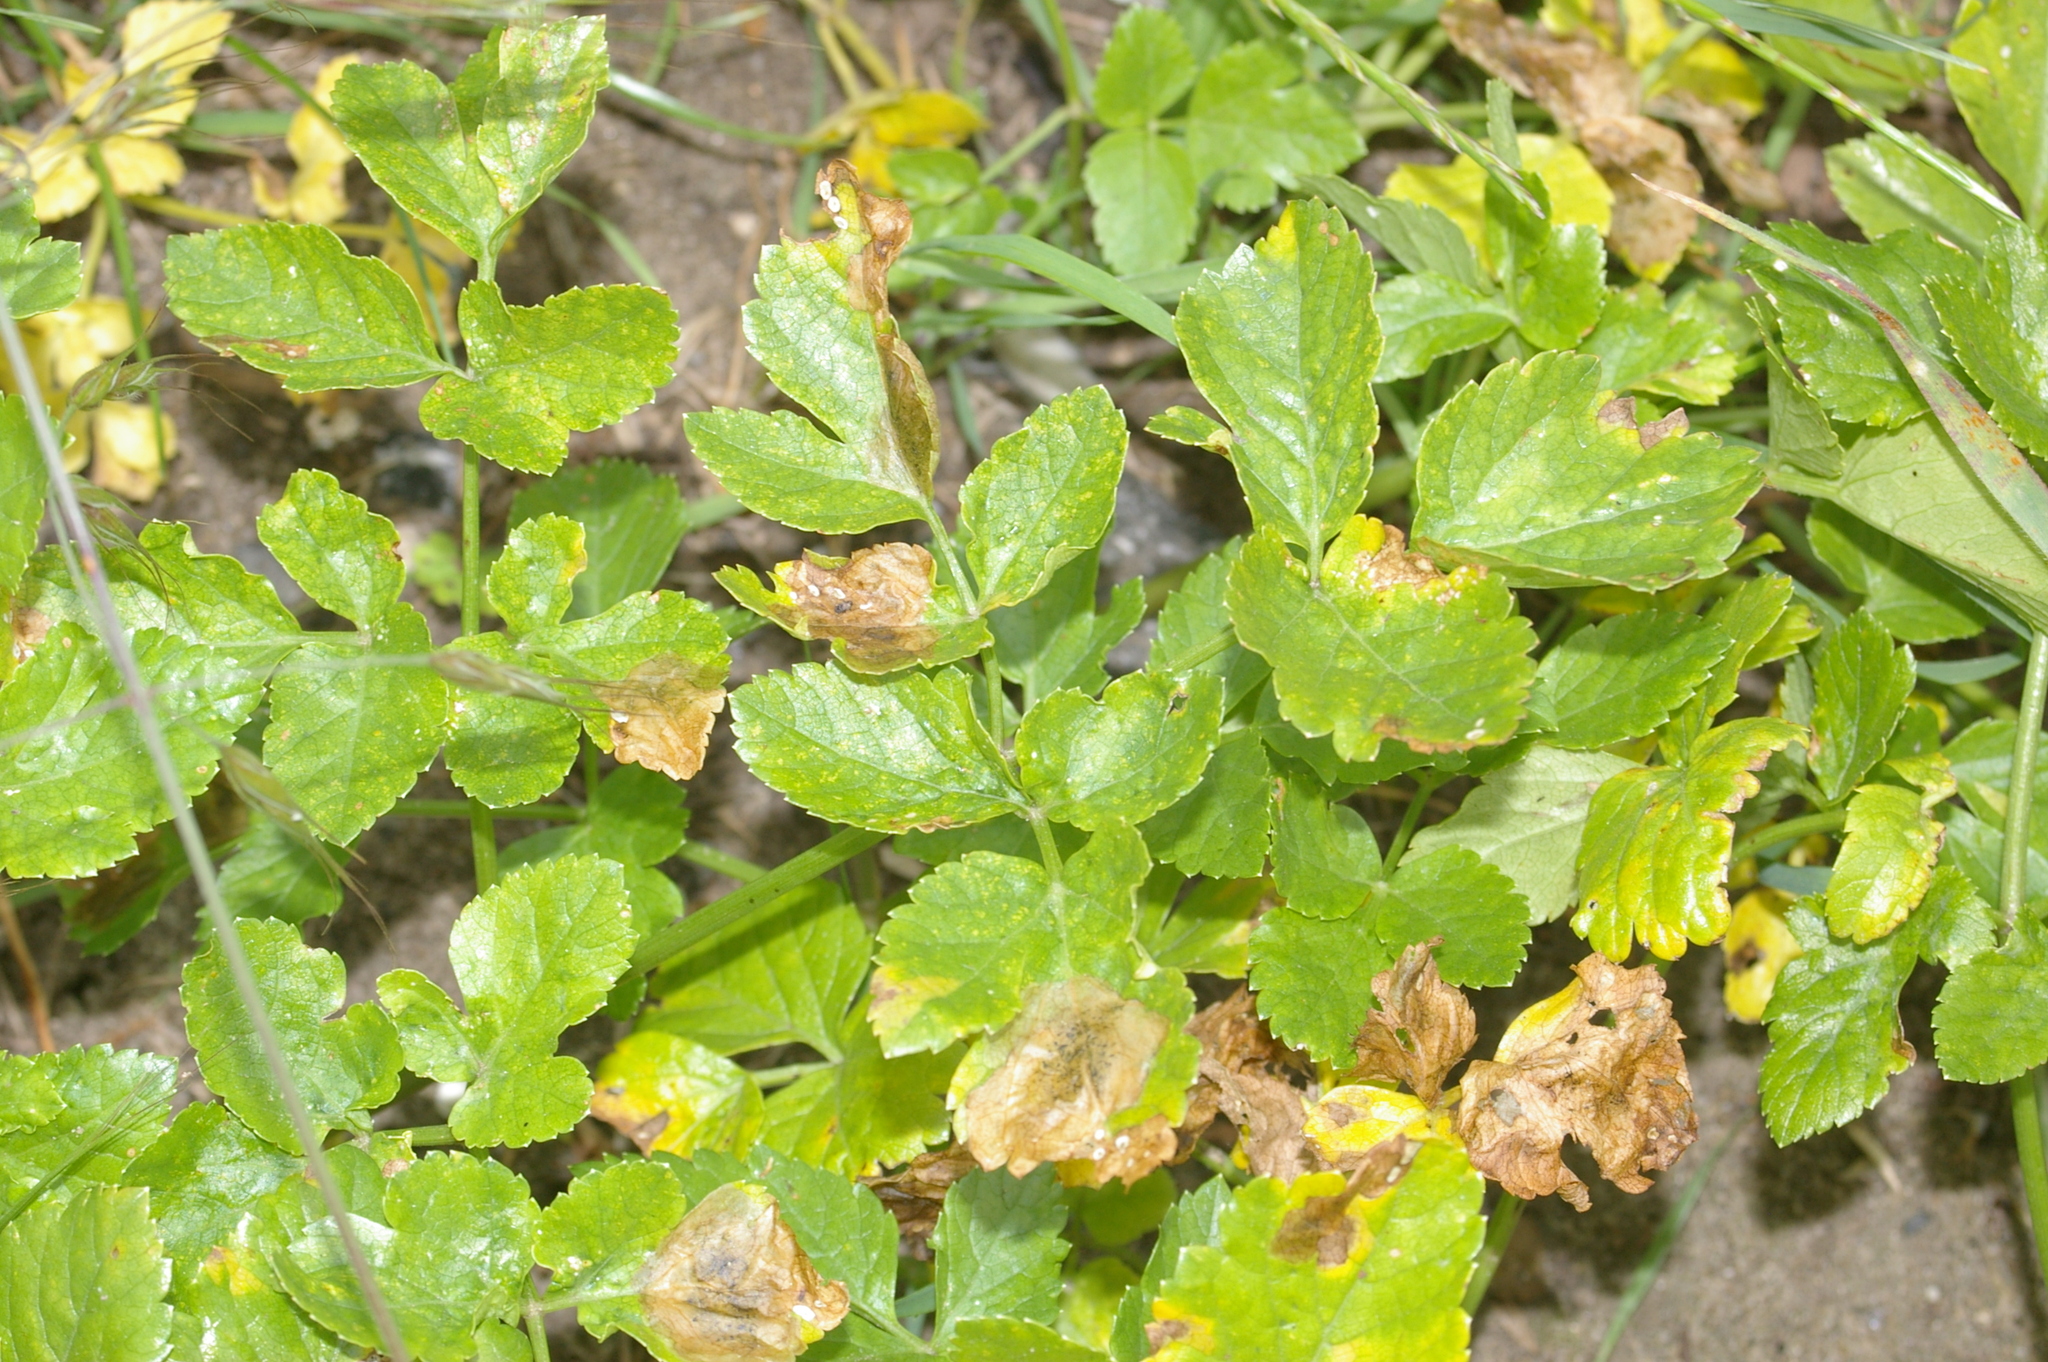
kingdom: Plantae
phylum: Tracheophyta
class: Magnoliopsida
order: Apiales
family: Apiaceae
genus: Helosciadium
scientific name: Helosciadium nodiflorum
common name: Fool's-watercress
